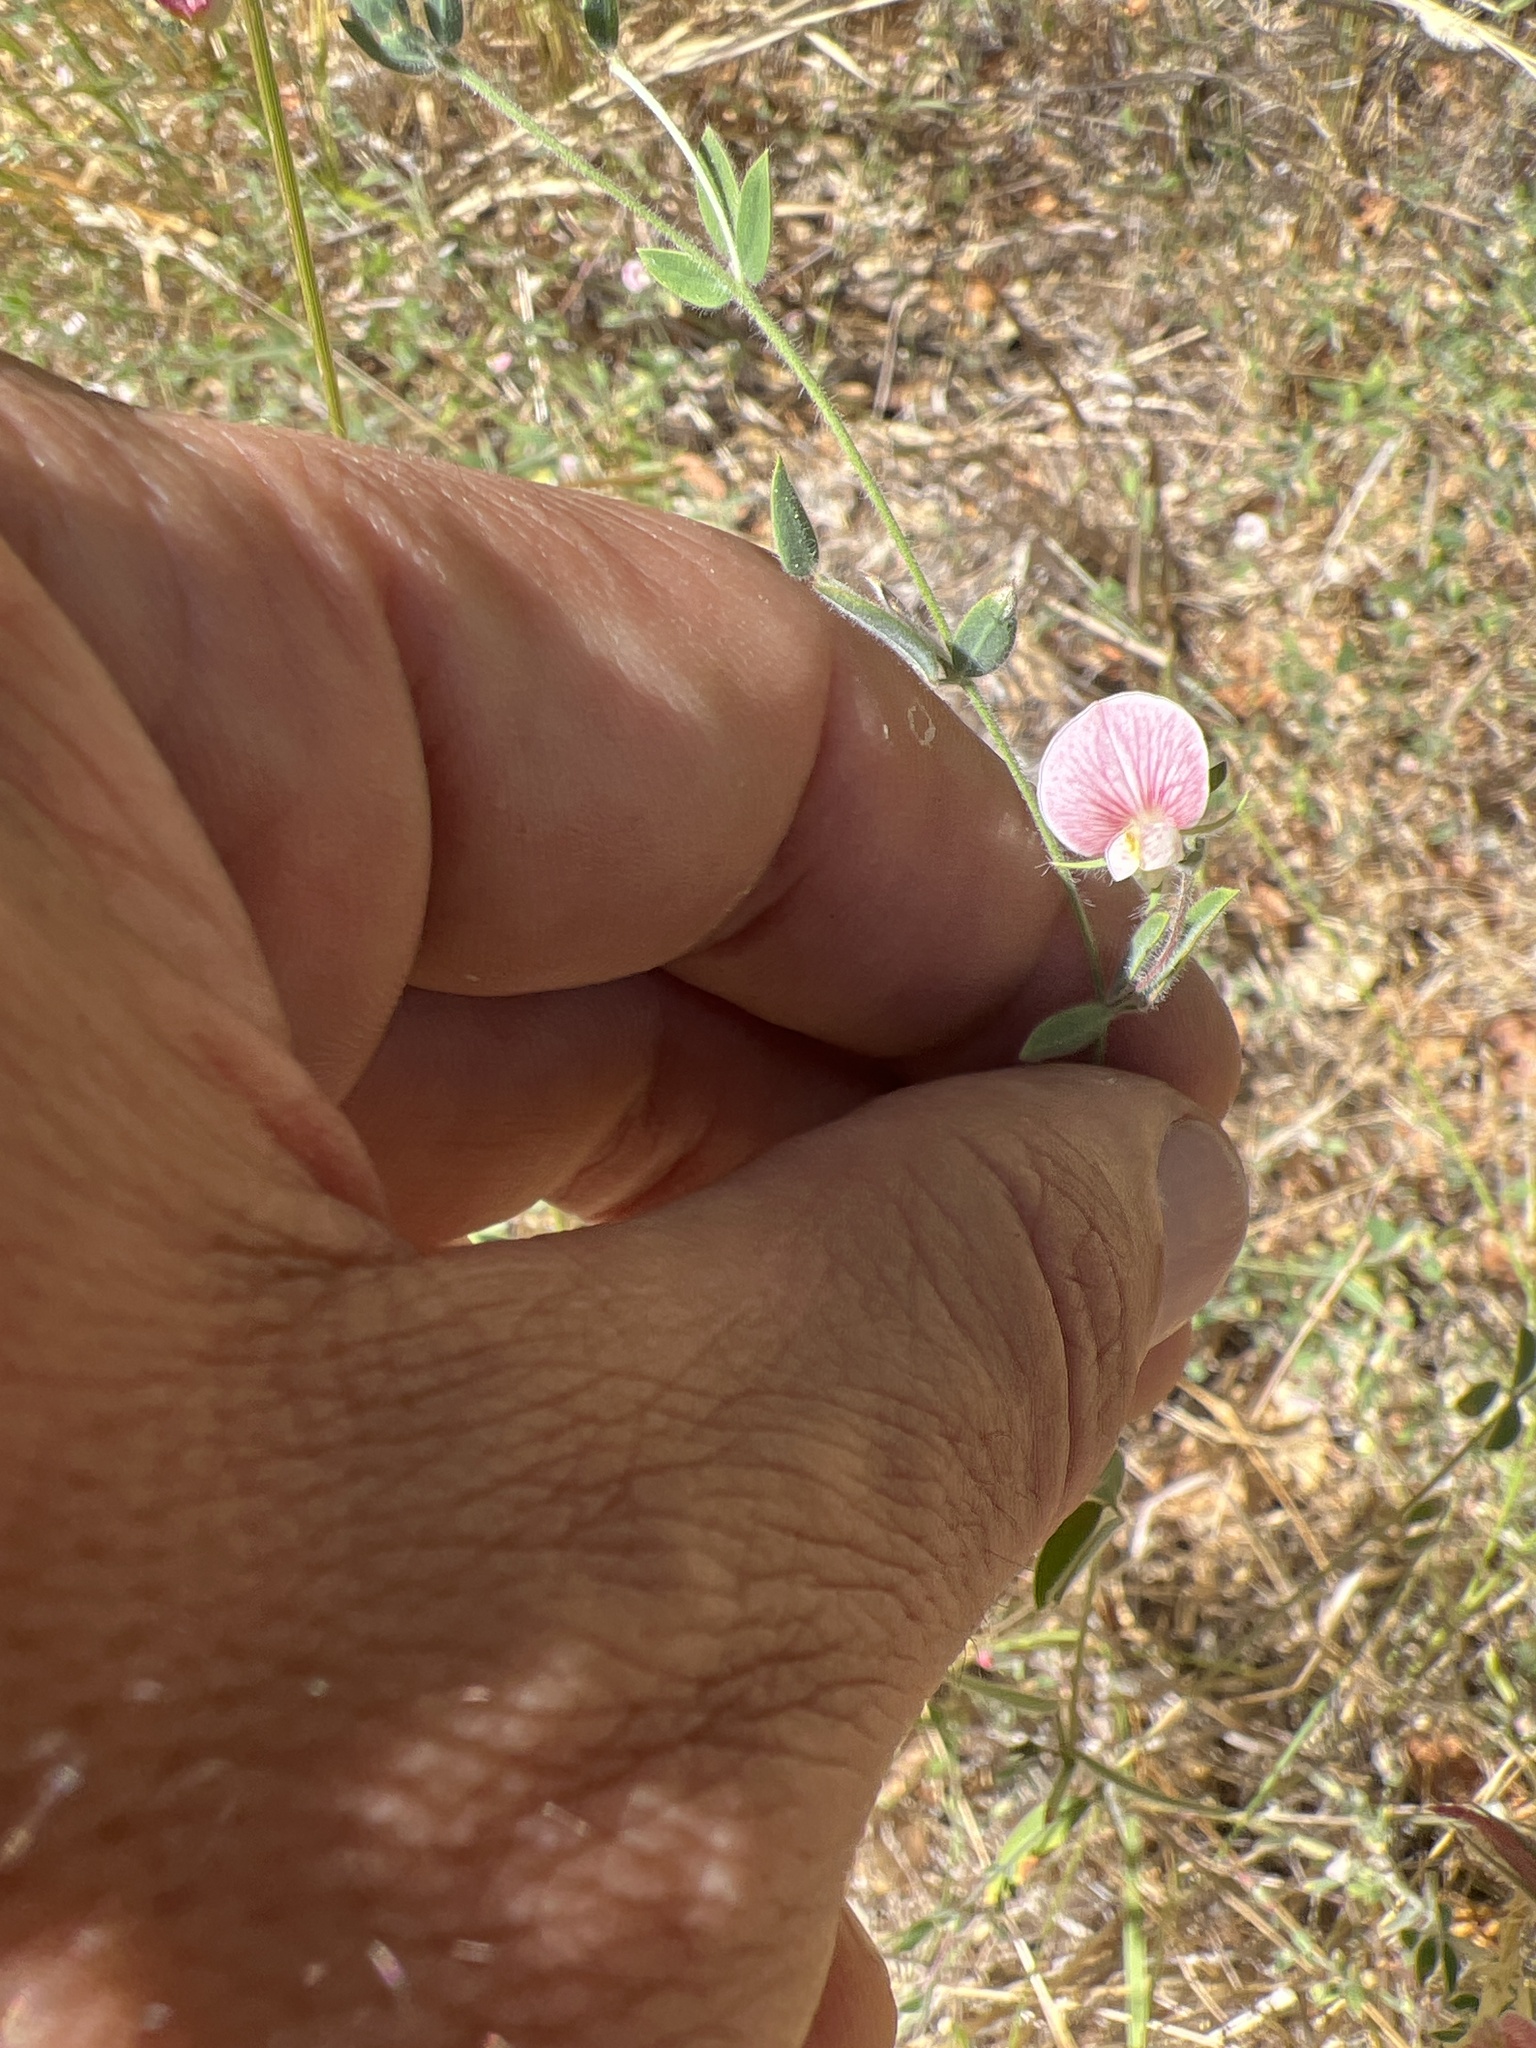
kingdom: Plantae
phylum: Tracheophyta
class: Magnoliopsida
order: Fabales
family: Fabaceae
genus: Acmispon
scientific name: Acmispon americanus
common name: American bird's-foot trefoil
